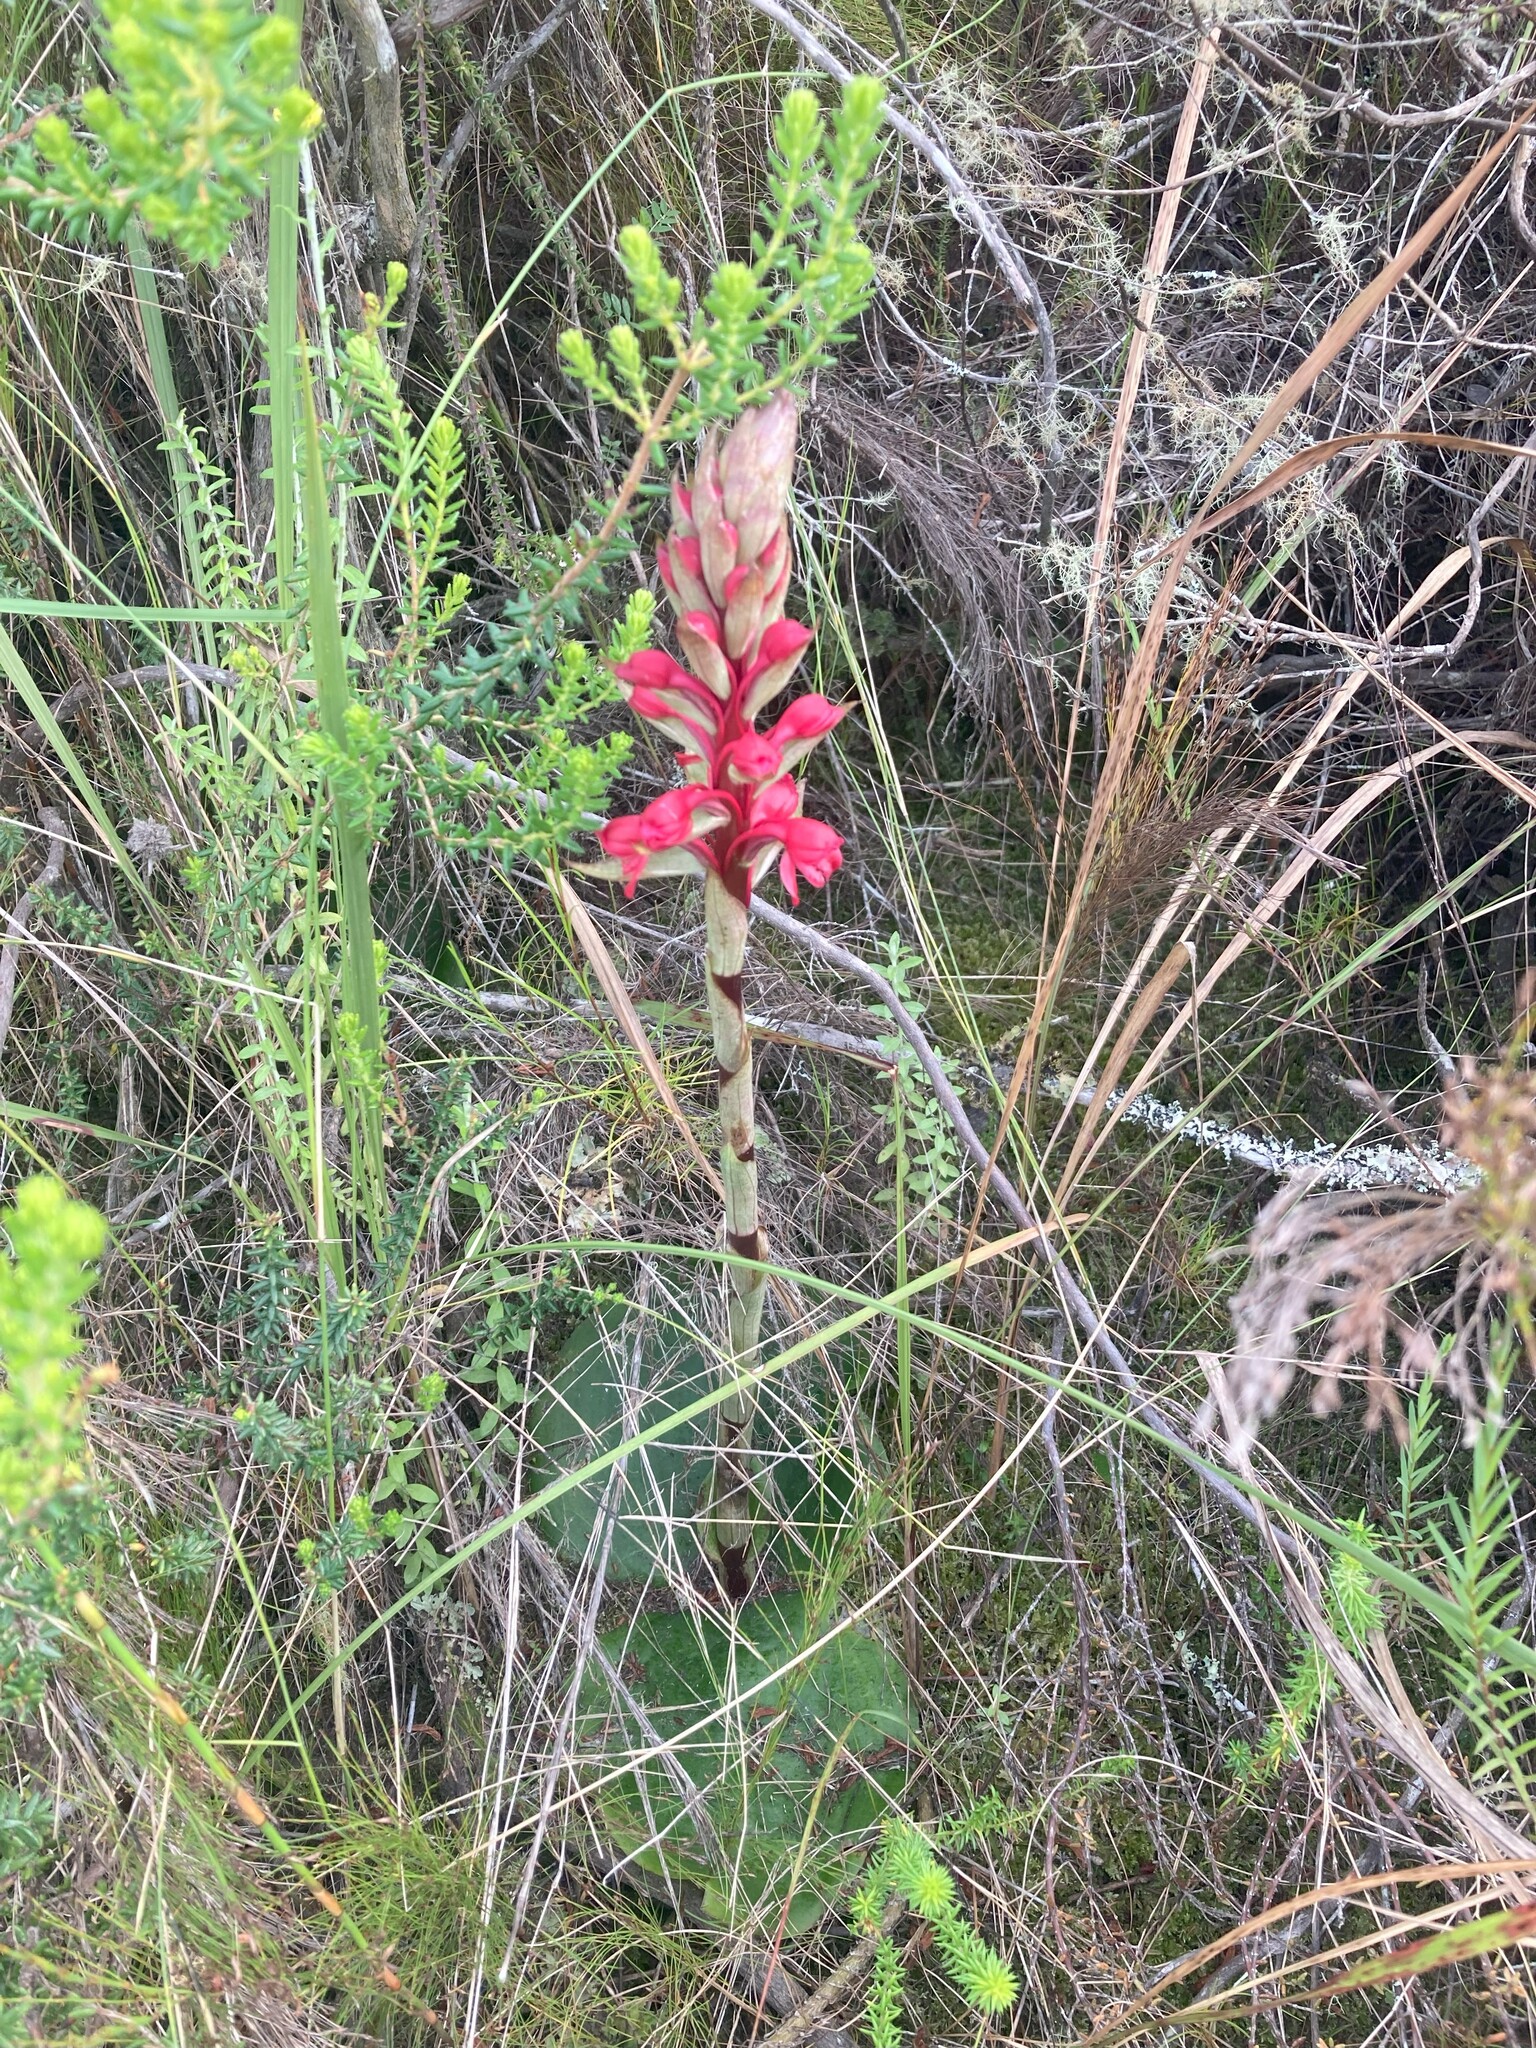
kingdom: Plantae
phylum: Tracheophyta
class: Liliopsida
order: Asparagales
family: Orchidaceae
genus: Satyrium
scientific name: Satyrium princeps
